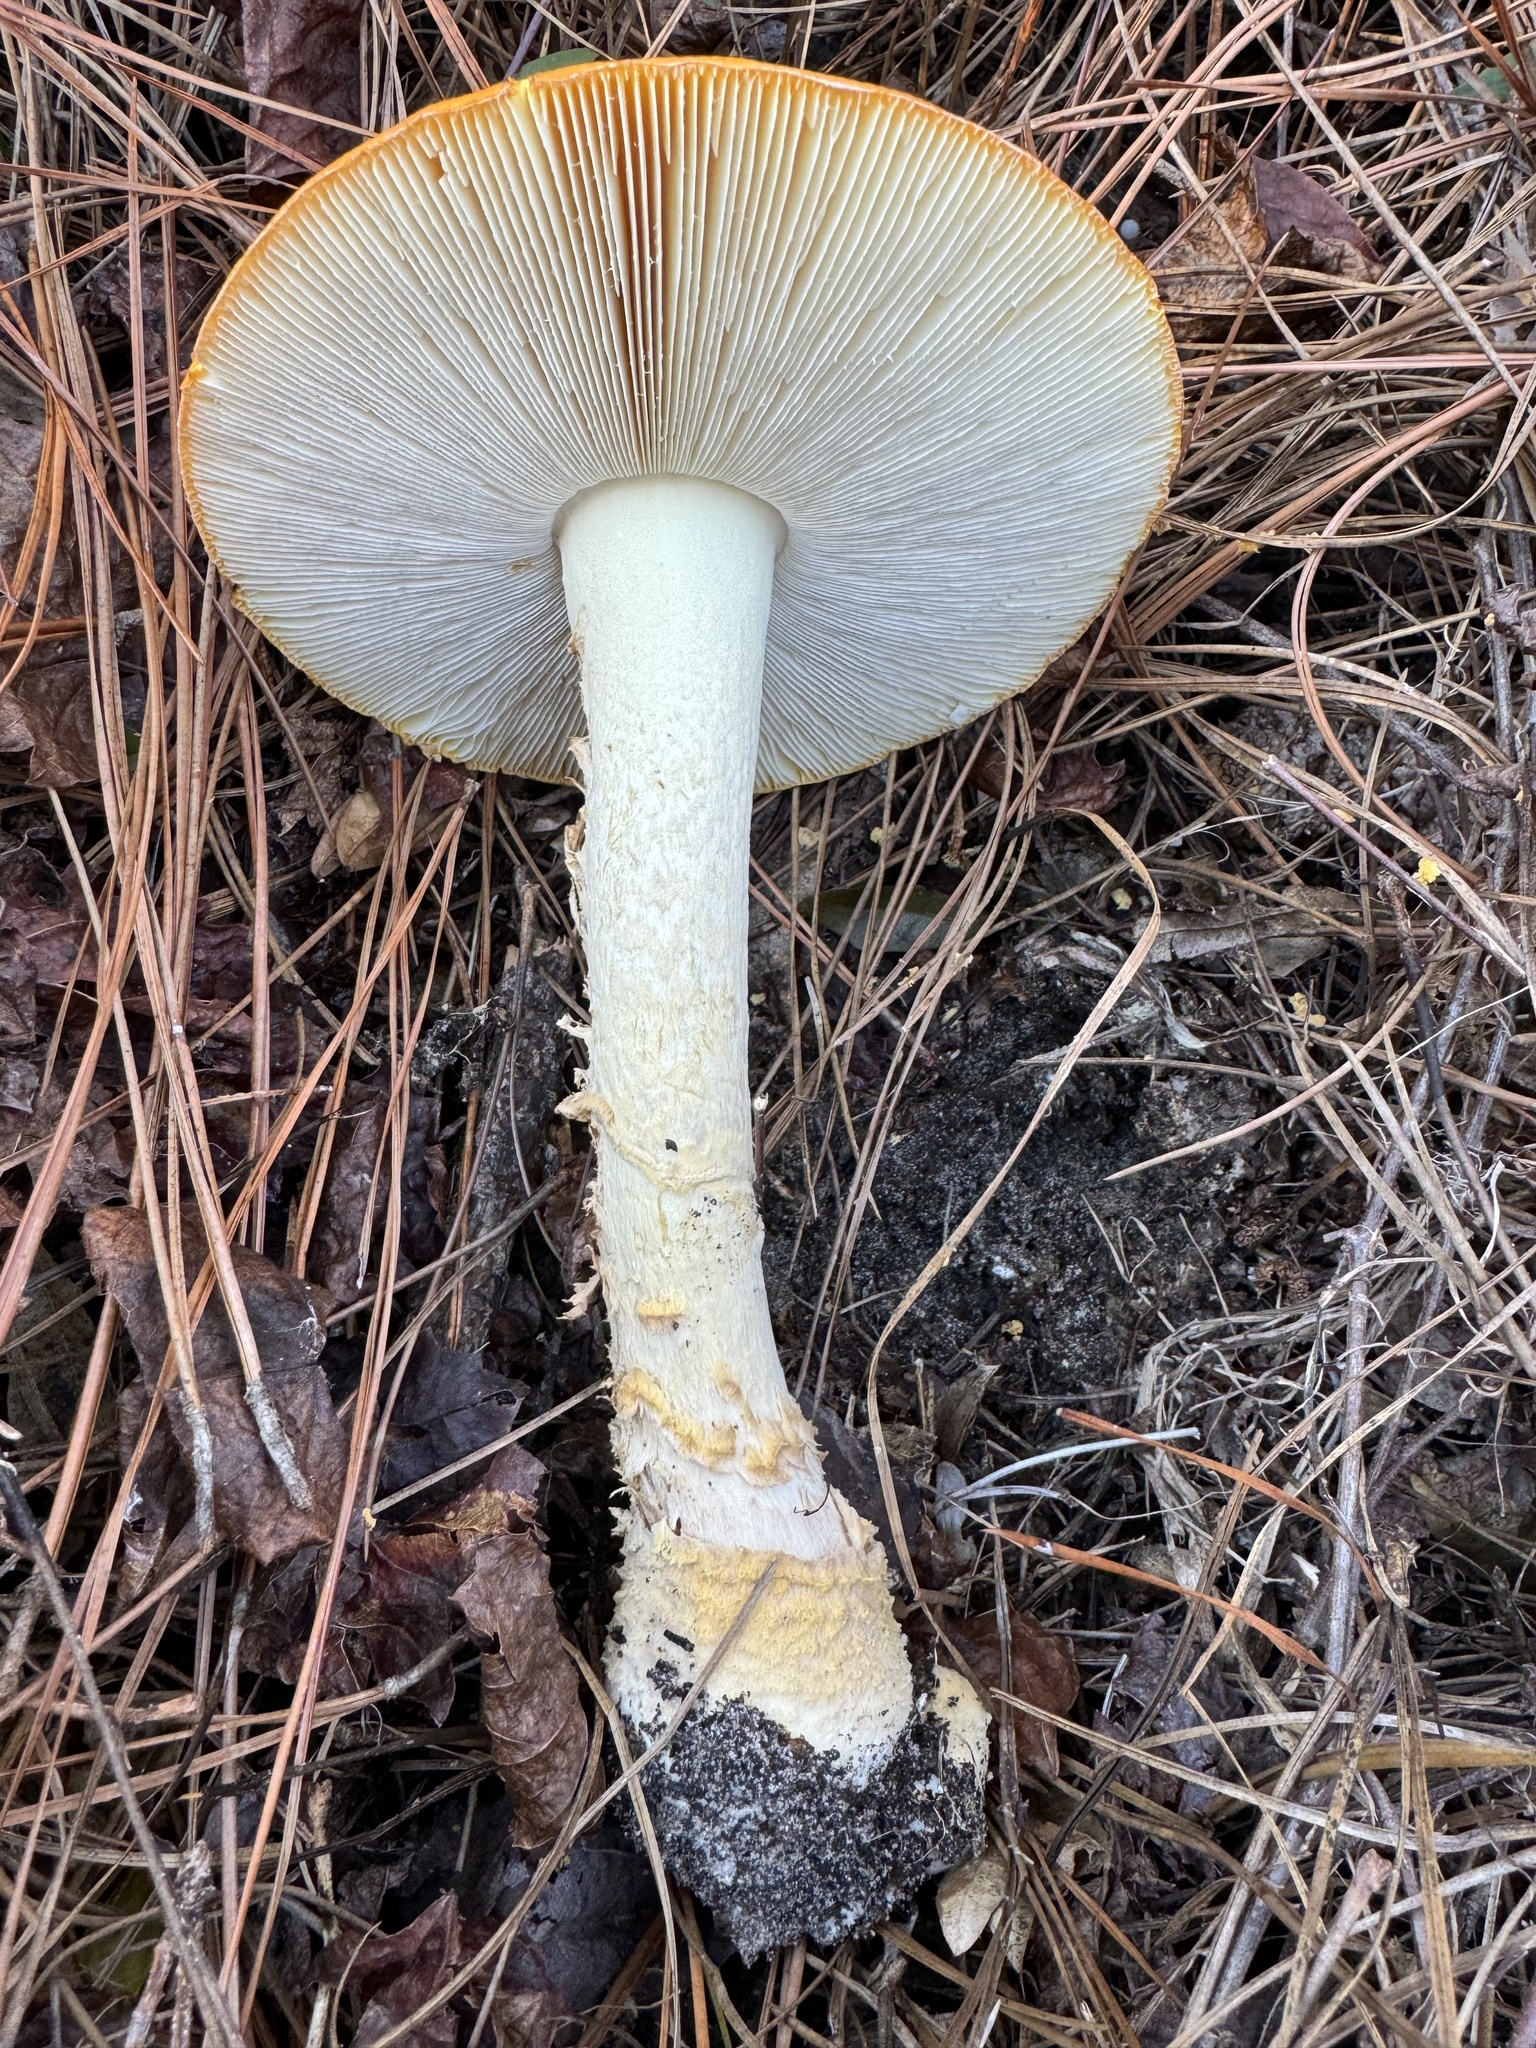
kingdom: Fungi
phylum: Basidiomycota
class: Agaricomycetes
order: Agaricales
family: Amanitaceae
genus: Amanita
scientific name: Amanita persicina
